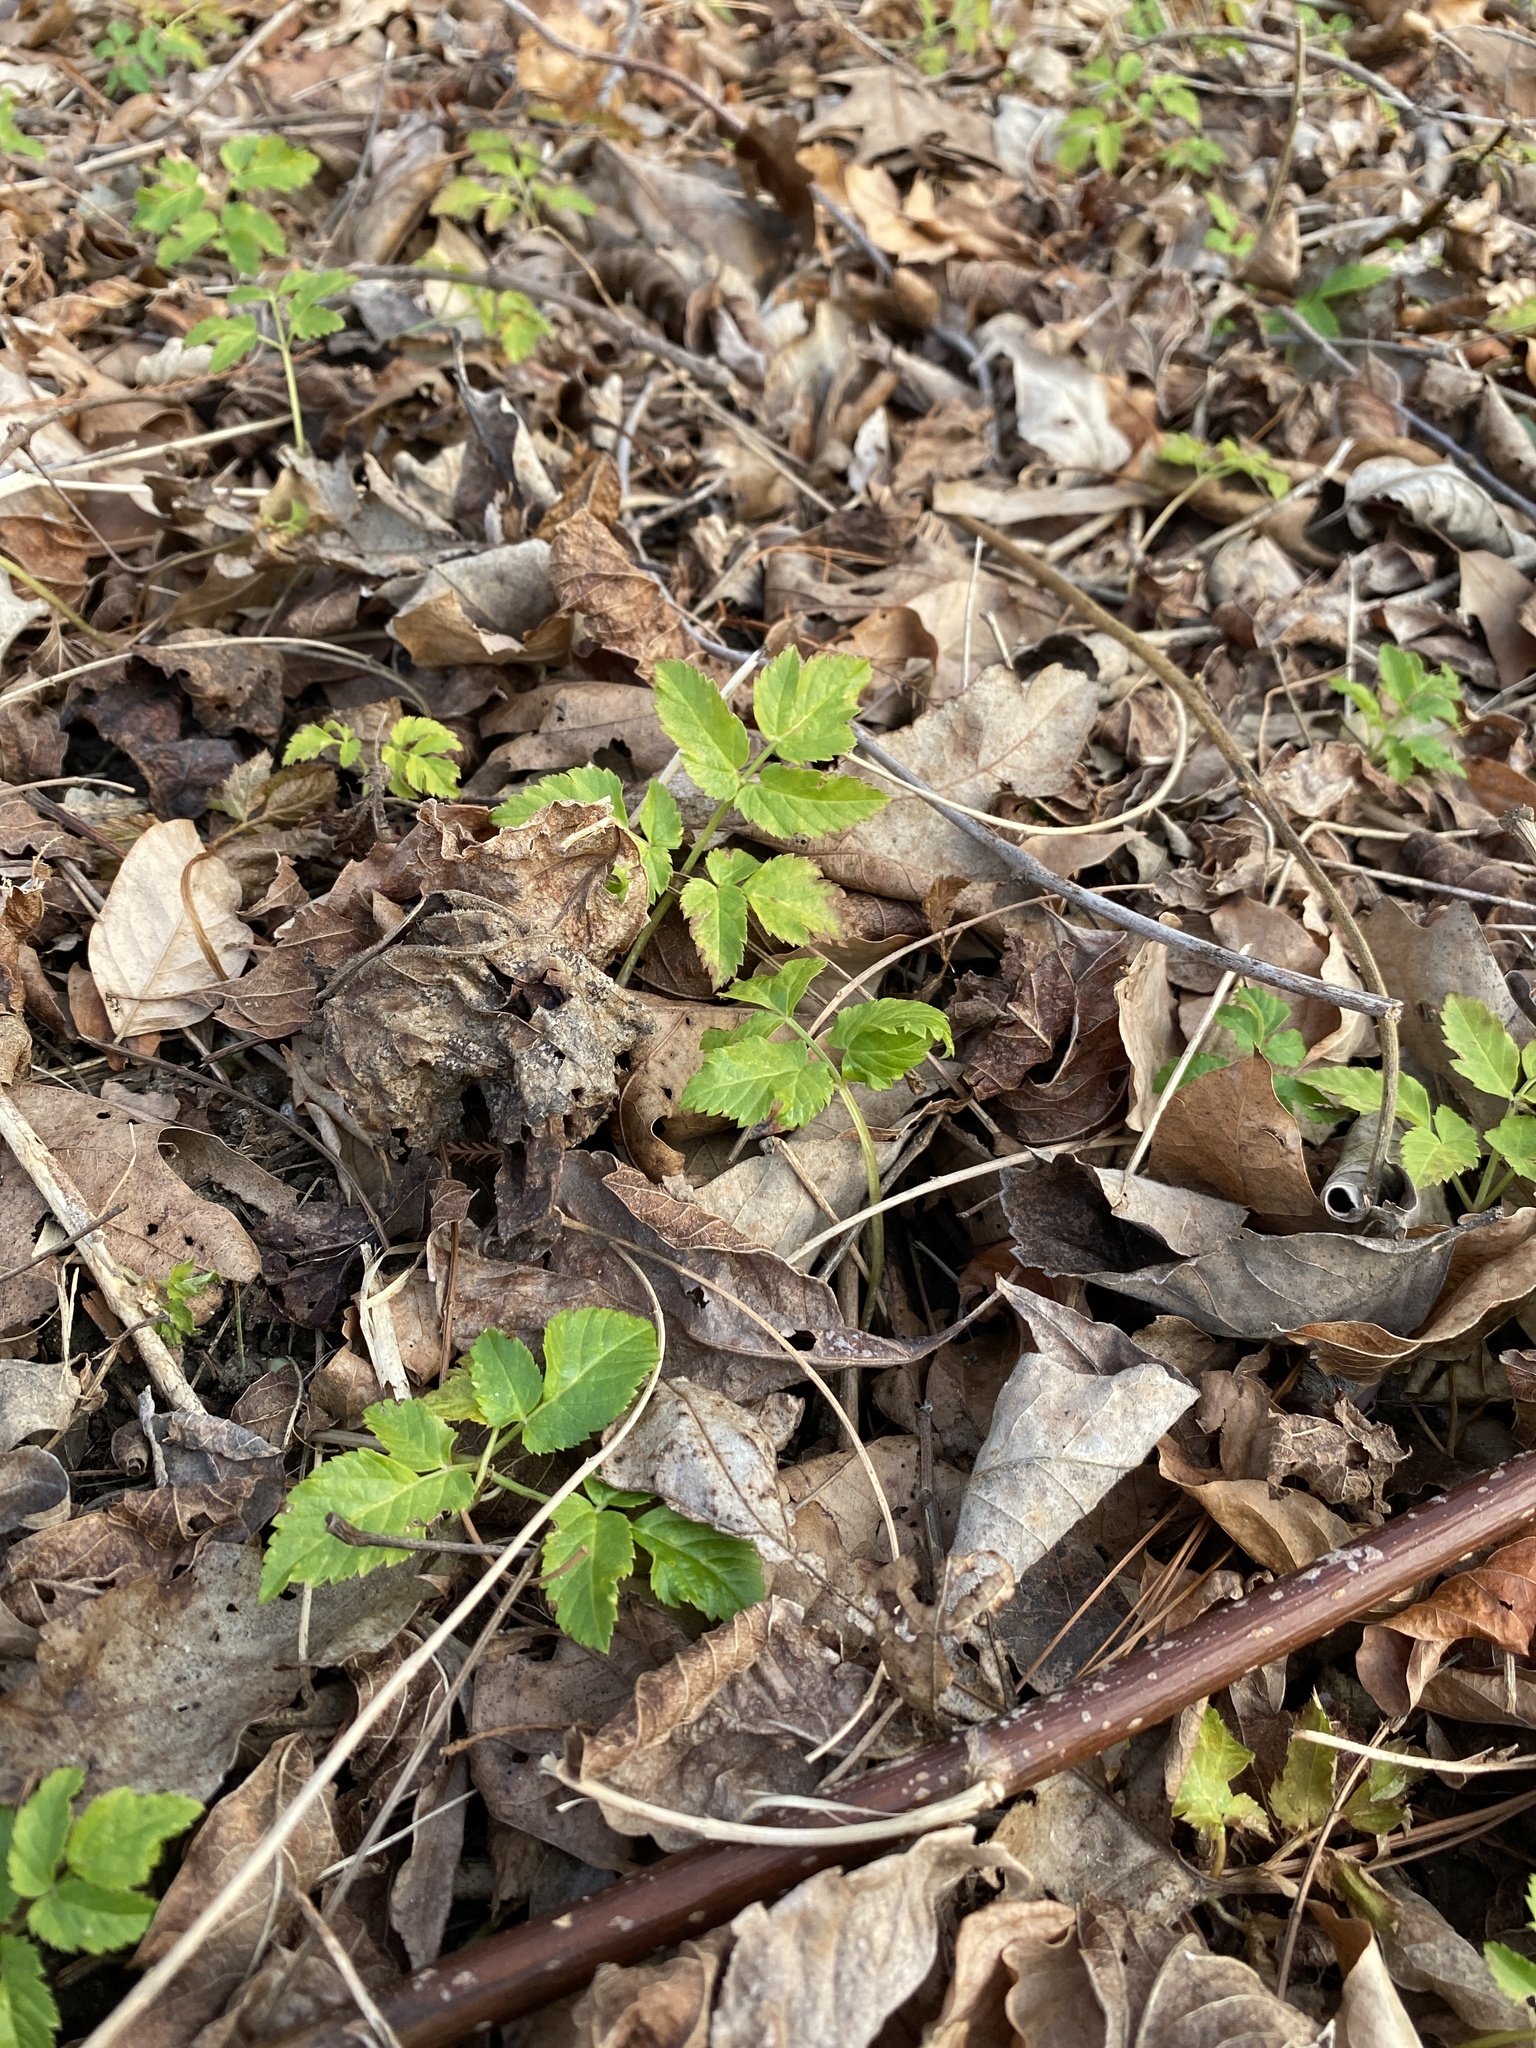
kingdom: Plantae
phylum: Tracheophyta
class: Magnoliopsida
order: Apiales
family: Apiaceae
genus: Aegopodium
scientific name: Aegopodium podagraria
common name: Ground-elder
